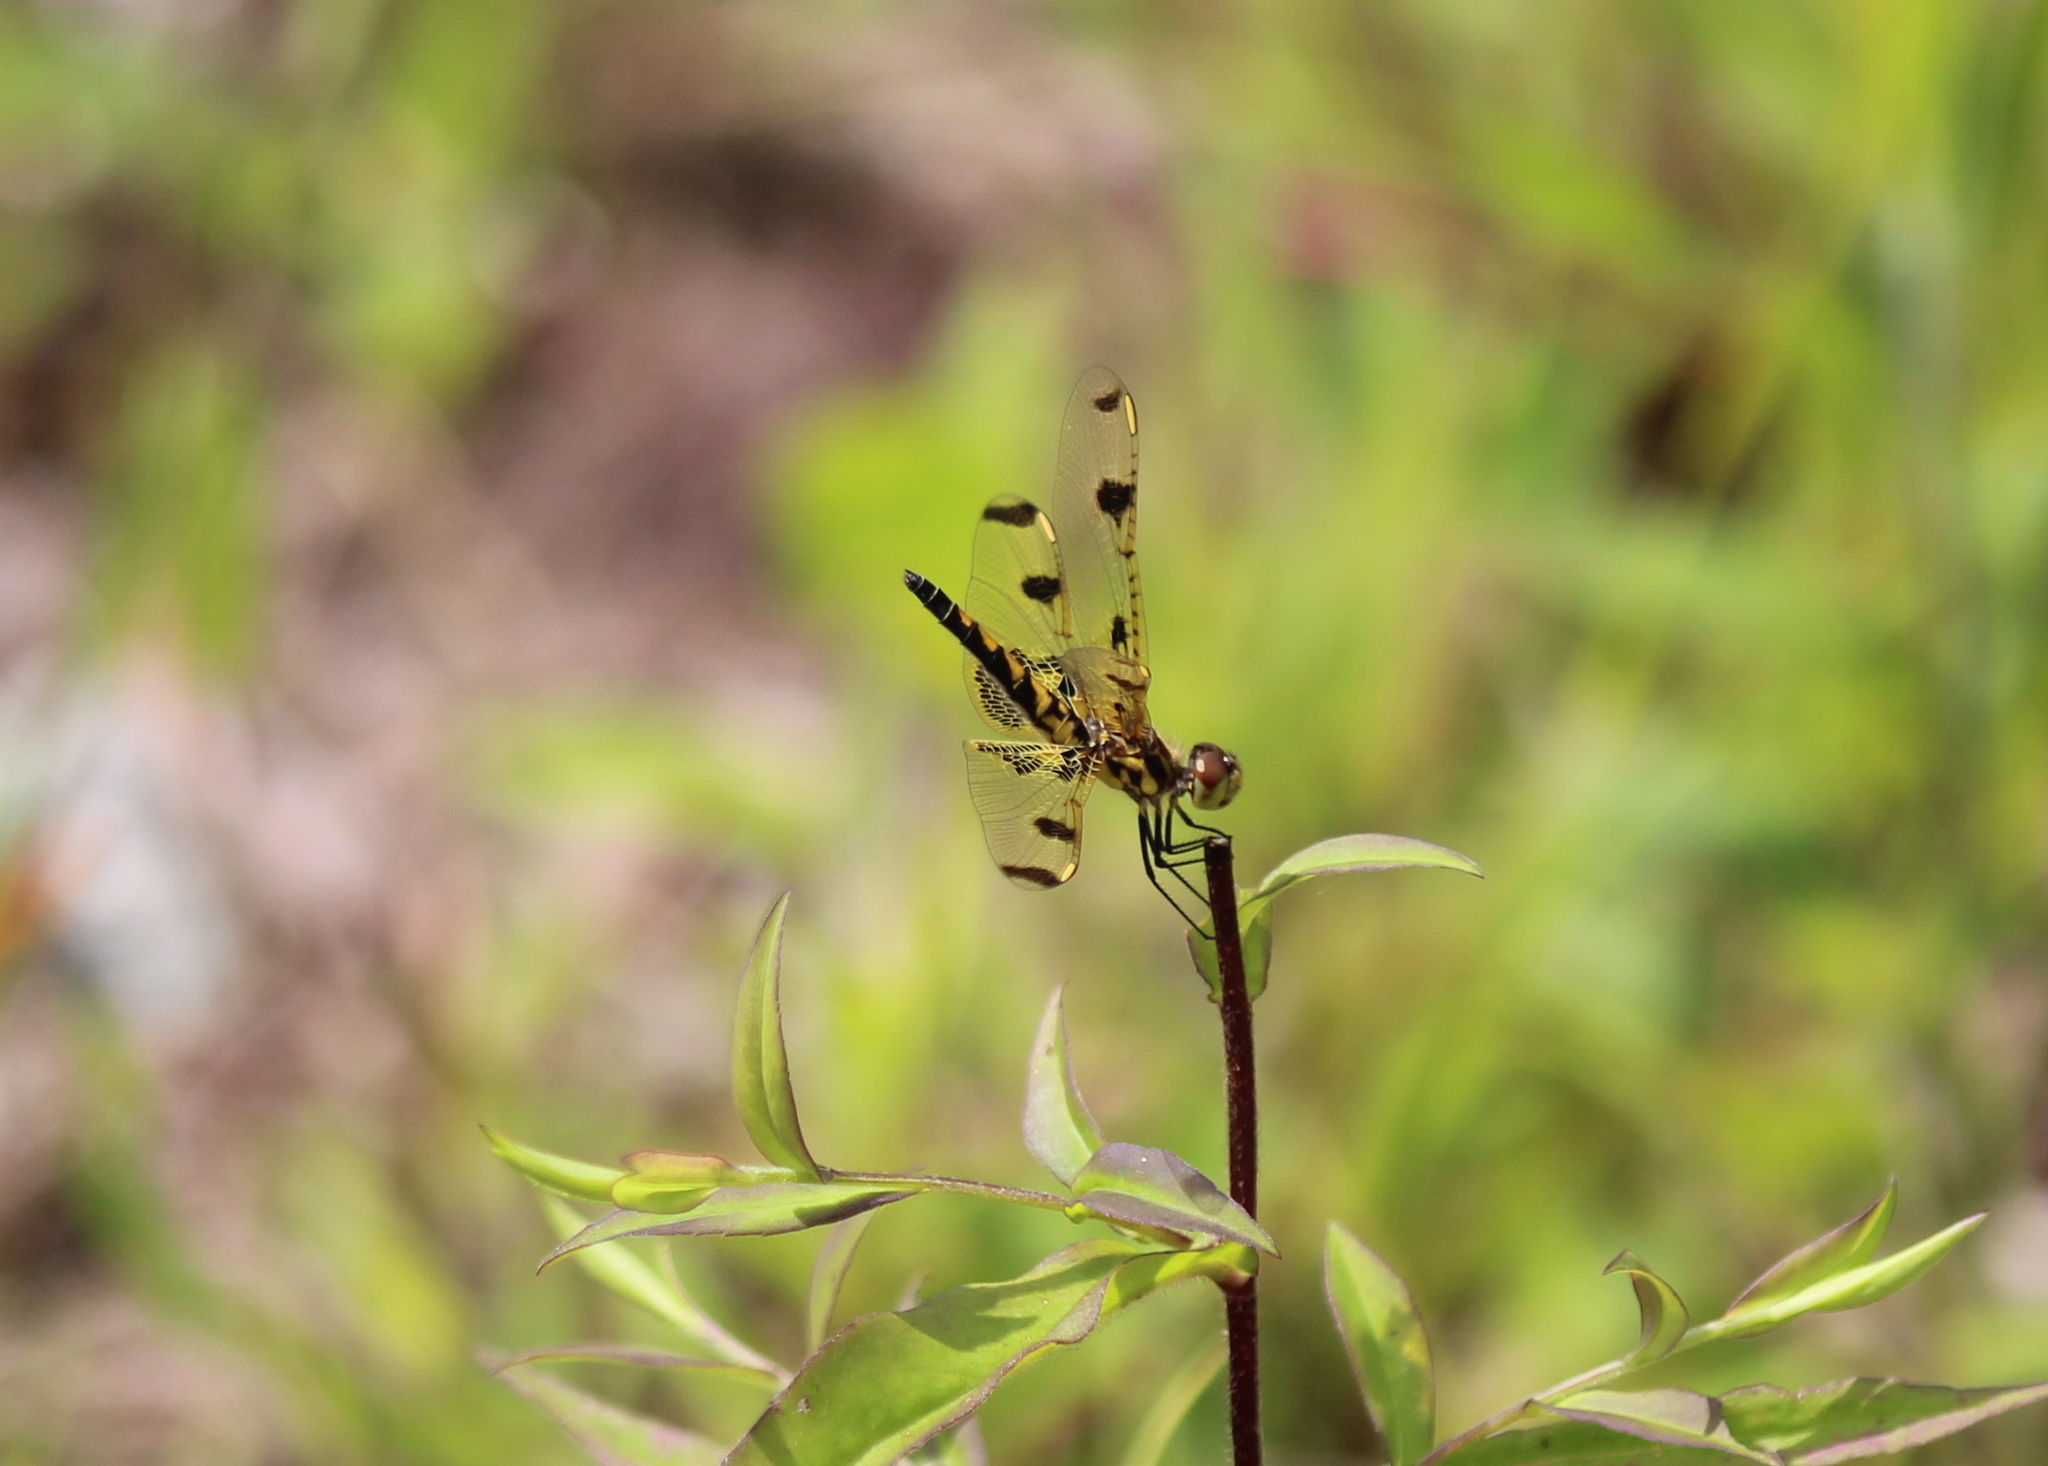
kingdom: Animalia
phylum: Arthropoda
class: Insecta
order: Odonata
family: Libellulidae
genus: Celithemis
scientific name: Celithemis elisa
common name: Calico pennant
